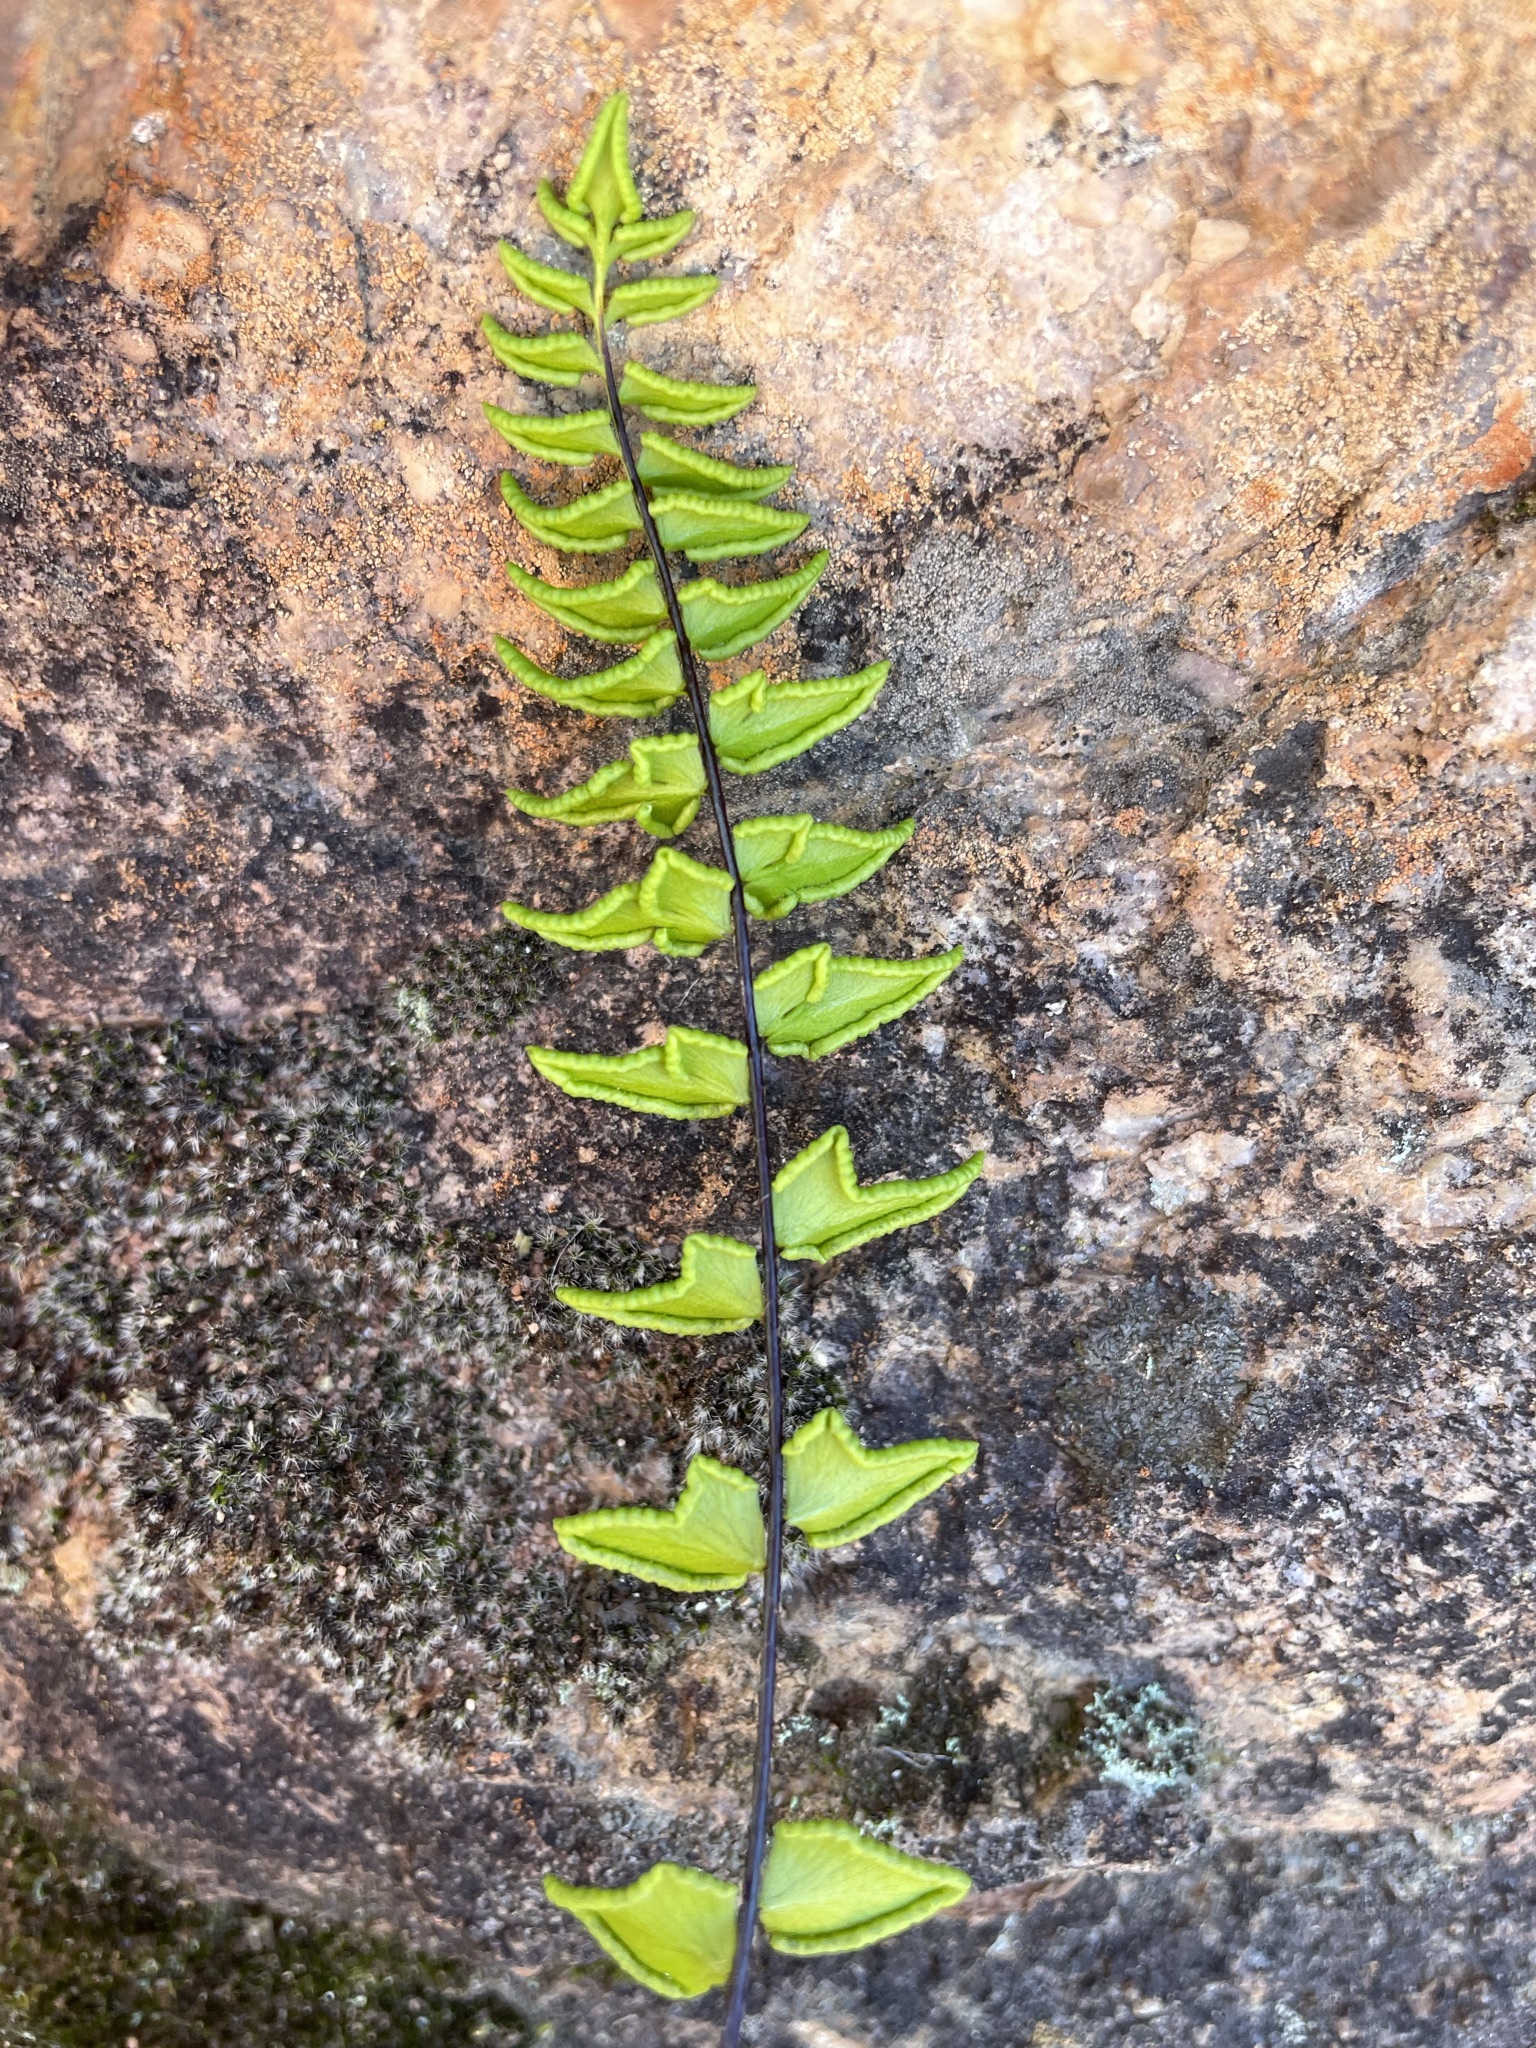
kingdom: Plantae
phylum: Tracheophyta
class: Polypodiopsida
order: Polypodiales
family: Pteridaceae
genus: Cheilanthes
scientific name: Cheilanthes hastata
